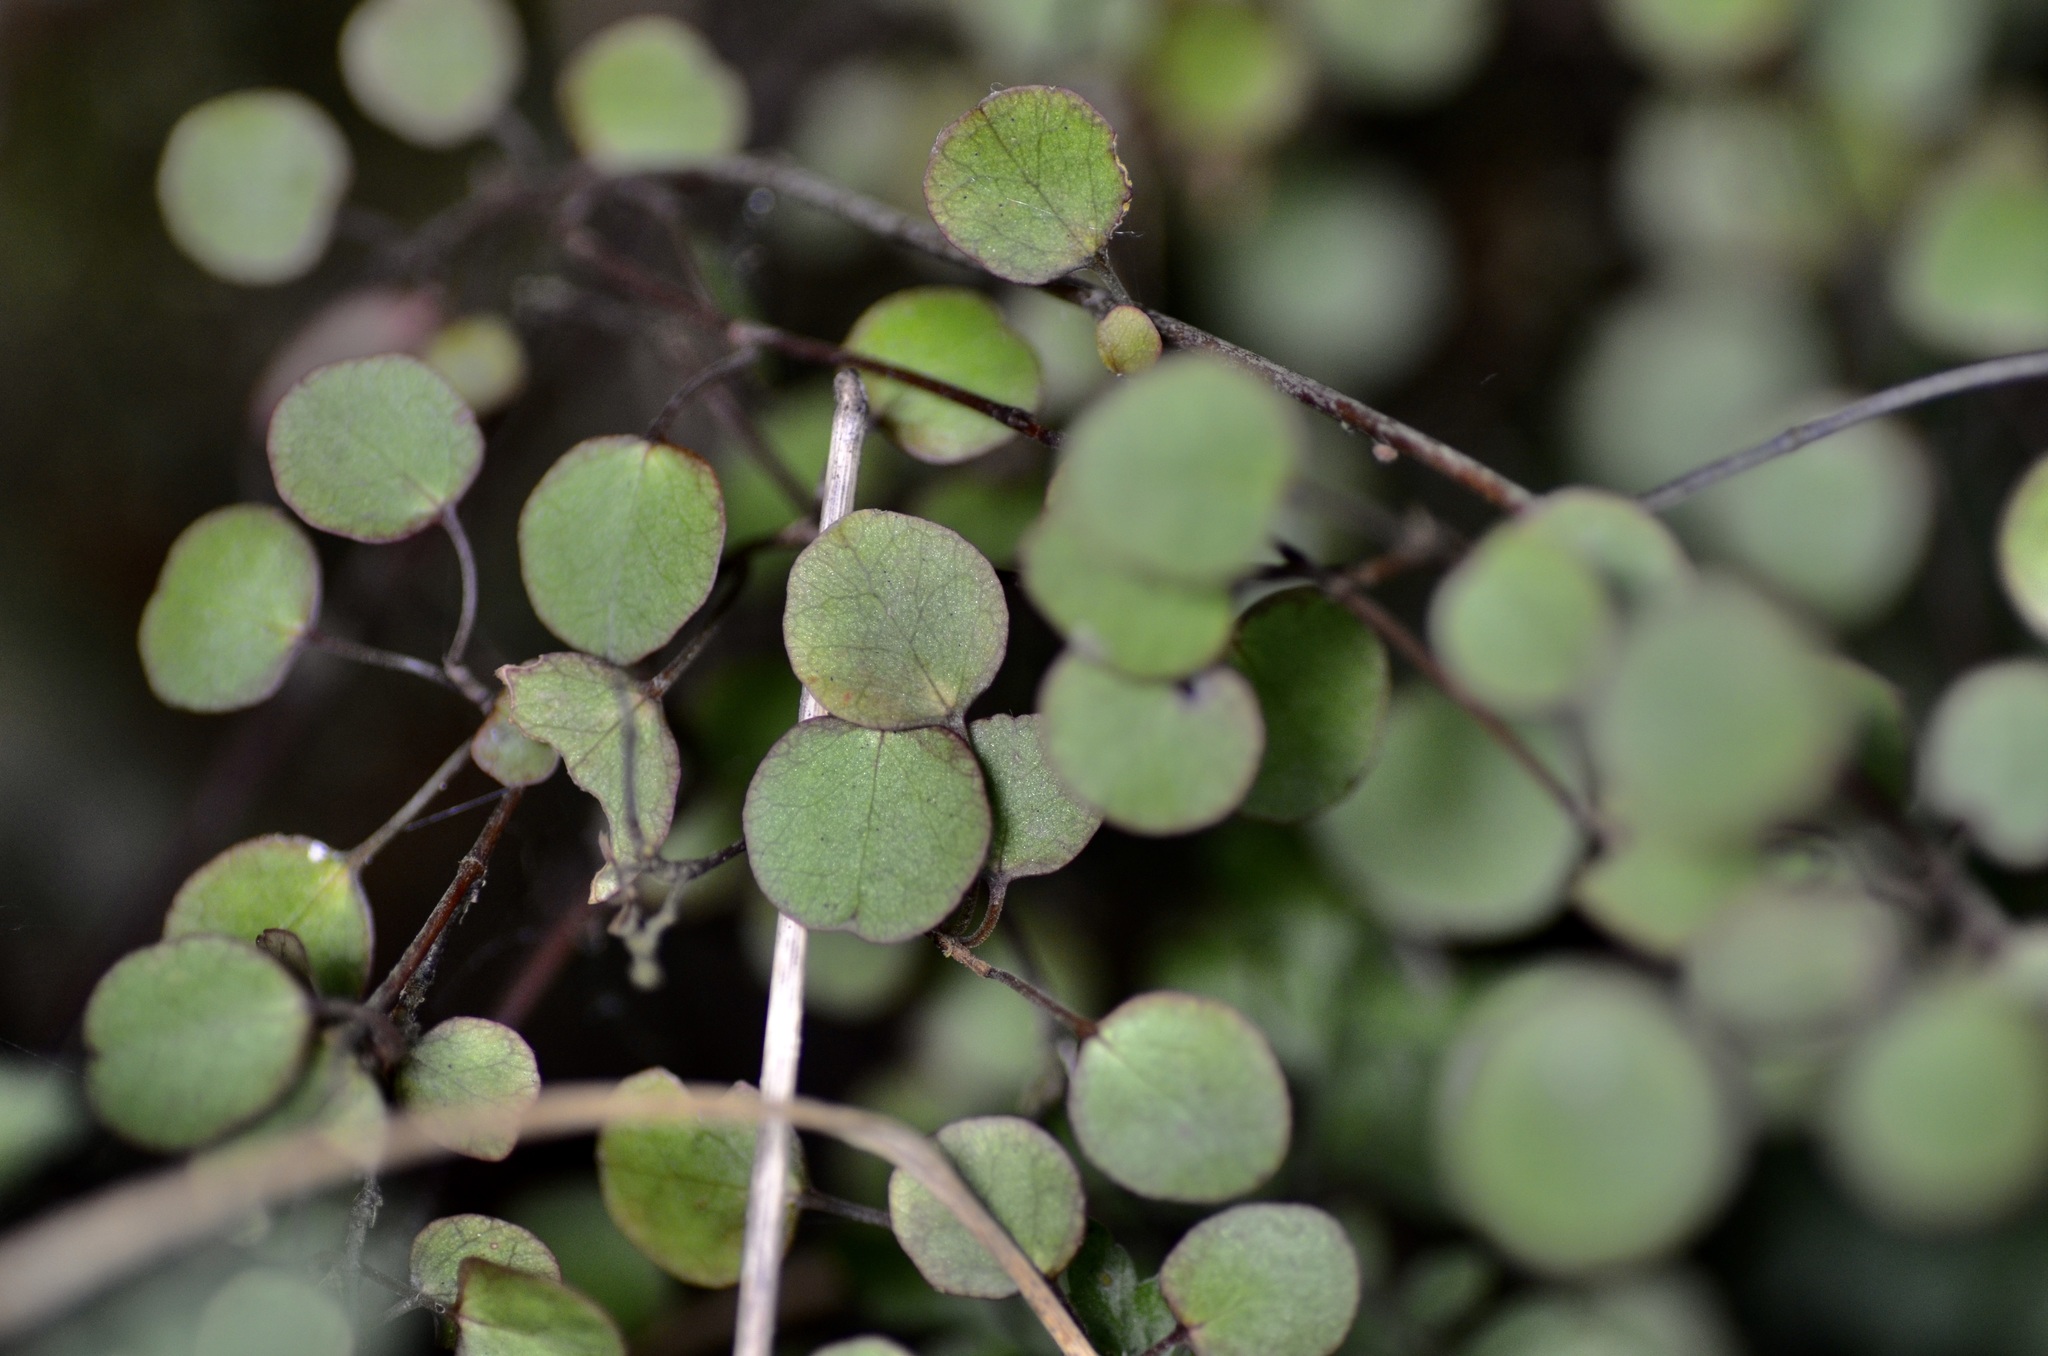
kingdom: Plantae
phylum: Tracheophyta
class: Magnoliopsida
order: Caryophyllales
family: Polygonaceae
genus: Muehlenbeckia
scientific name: Muehlenbeckia complexa
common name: Wireplant
